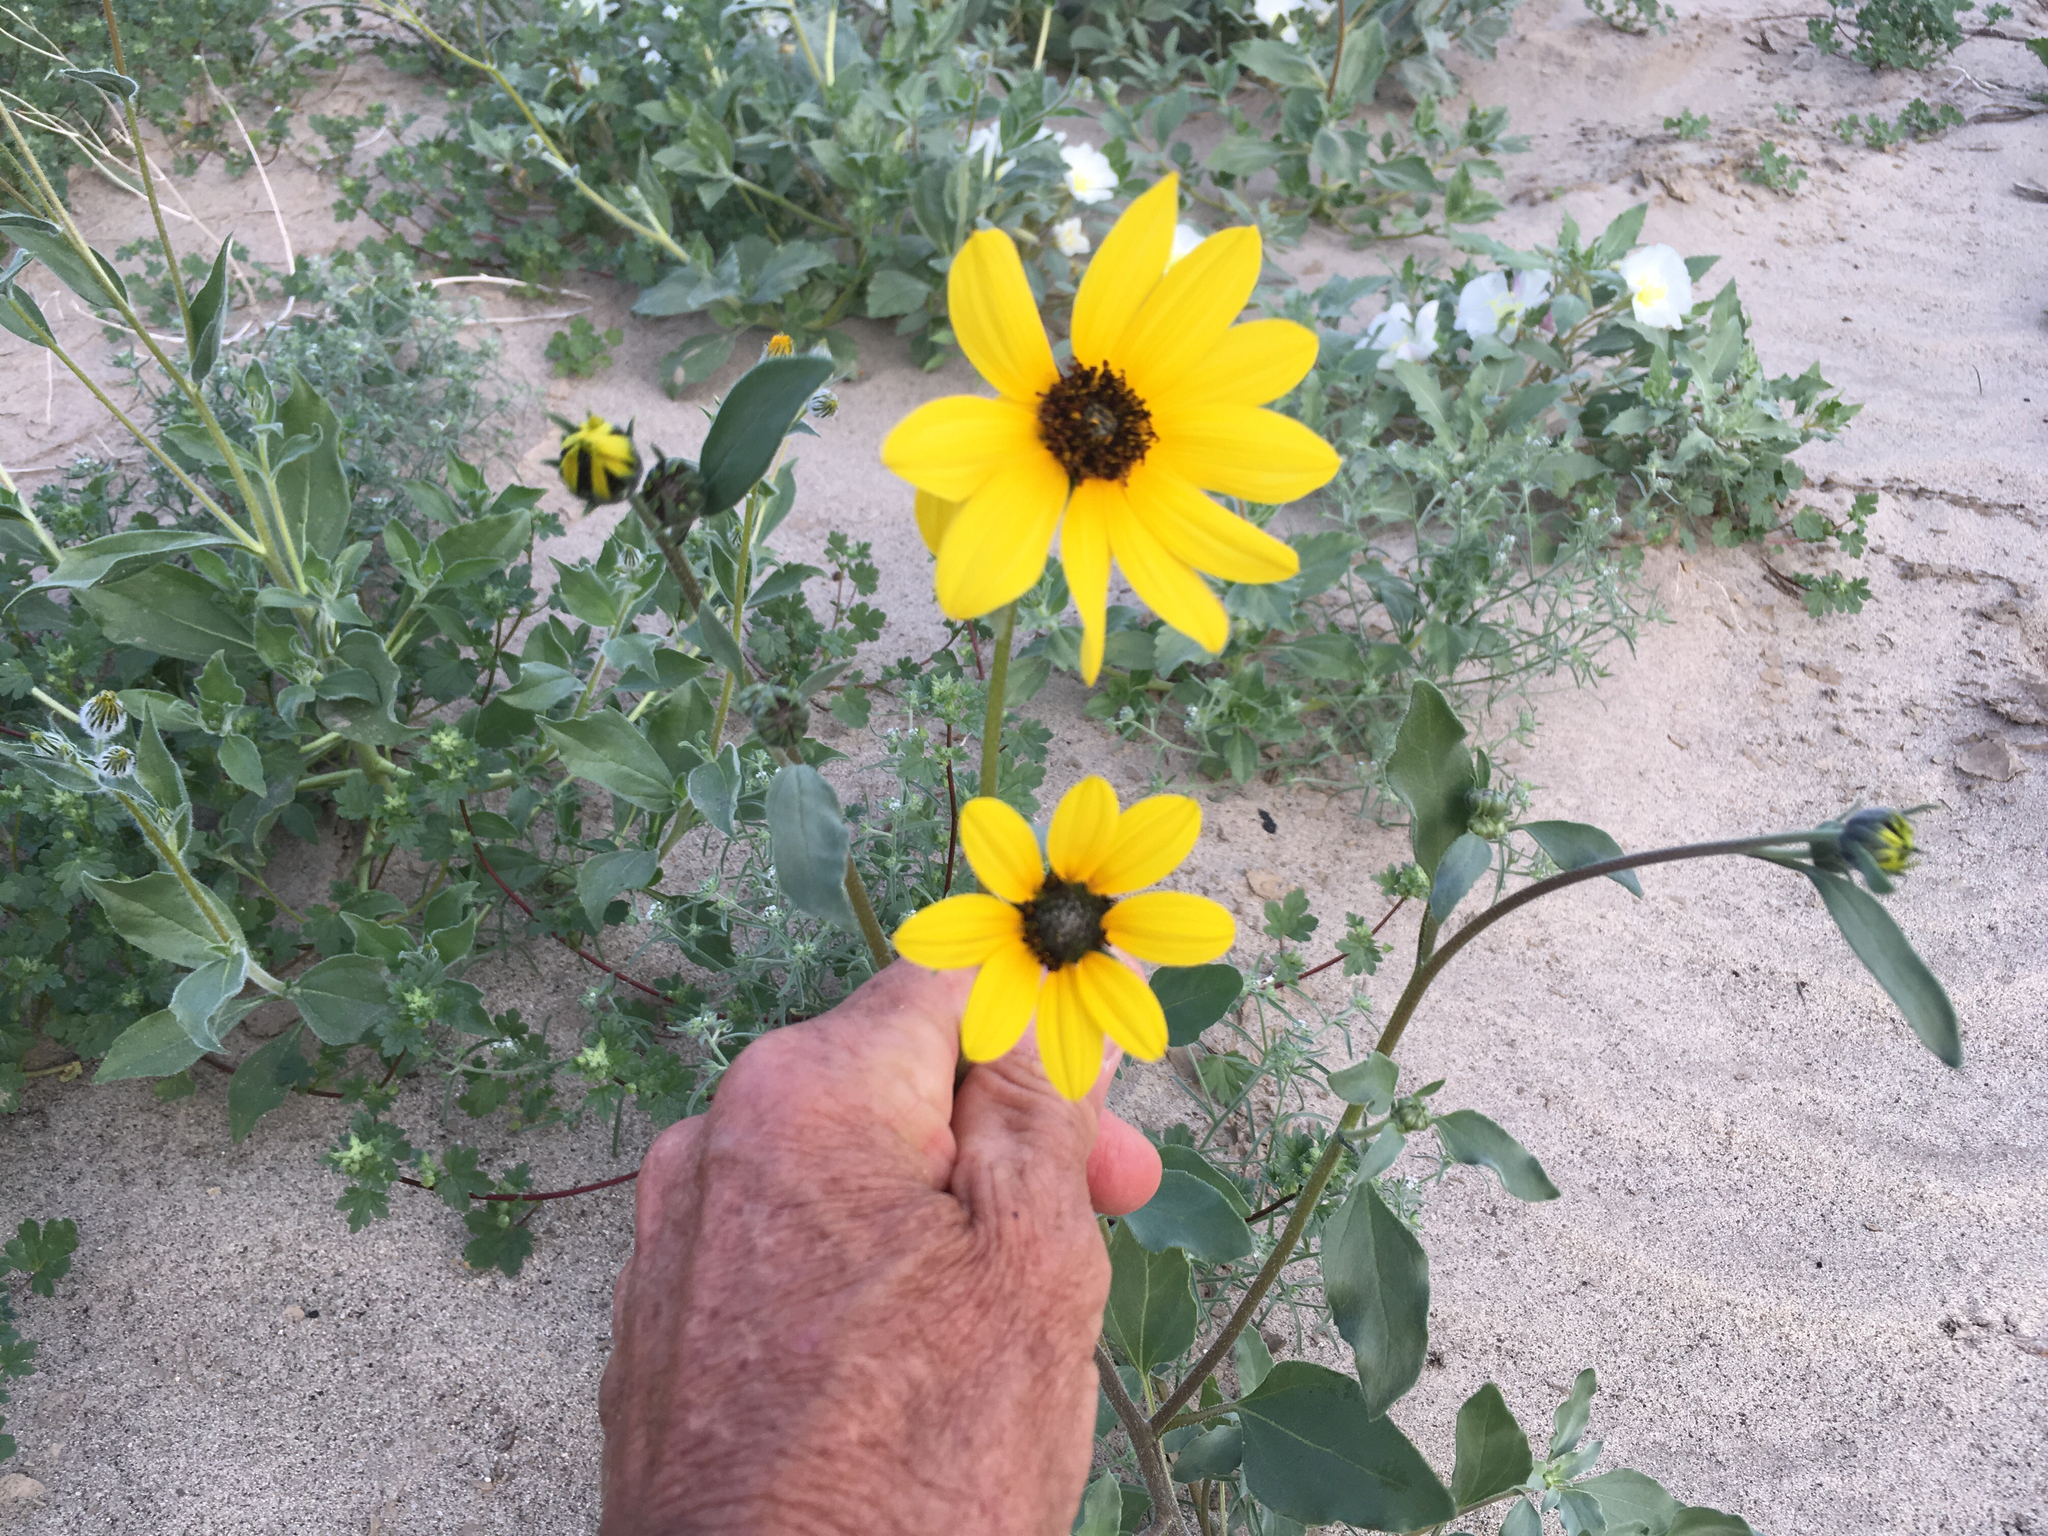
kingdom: Plantae
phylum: Tracheophyta
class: Magnoliopsida
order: Asterales
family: Asteraceae
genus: Helianthus
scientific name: Helianthus petiolaris
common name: Lesser sunflower
